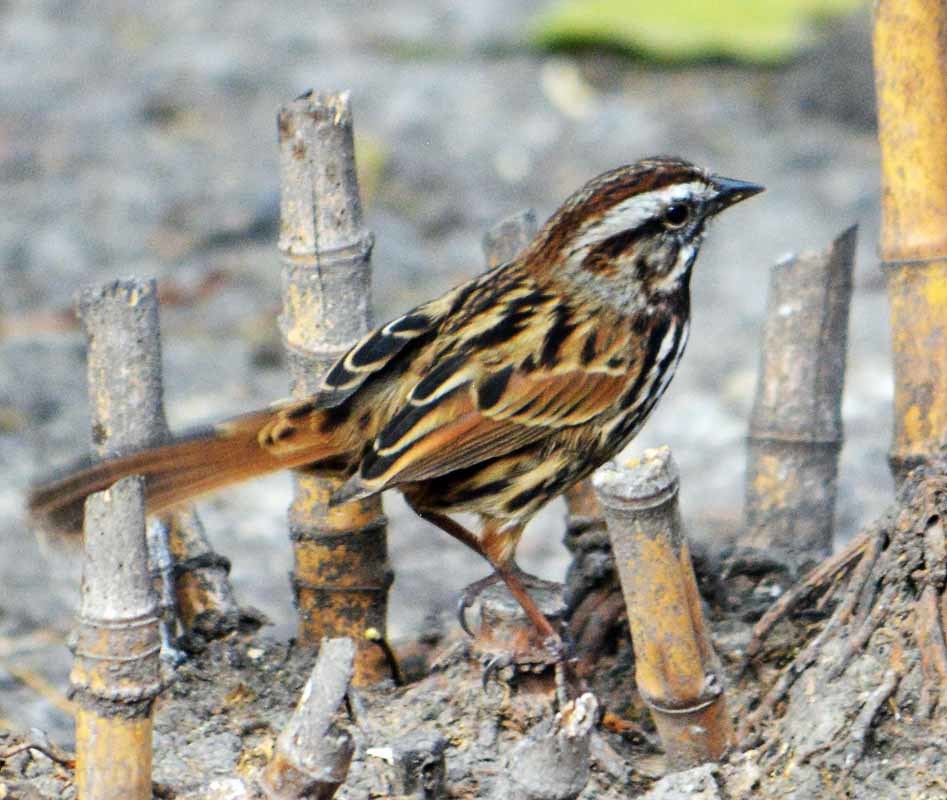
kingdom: Animalia
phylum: Chordata
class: Aves
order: Passeriformes
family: Passerellidae
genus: Melospiza
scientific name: Melospiza melodia
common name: Song sparrow
